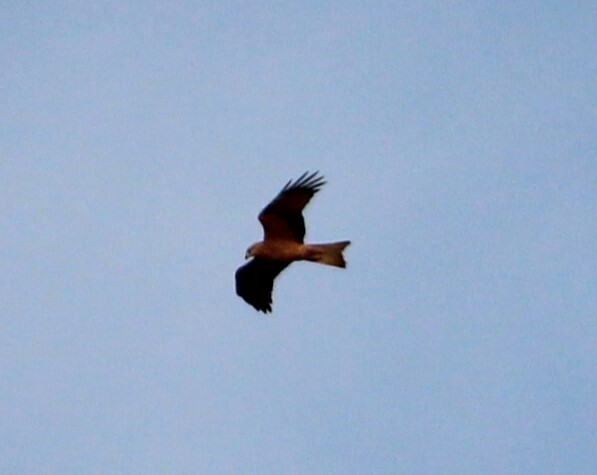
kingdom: Animalia
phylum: Chordata
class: Aves
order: Accipitriformes
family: Accipitridae
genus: Milvus
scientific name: Milvus migrans
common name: Black kite
